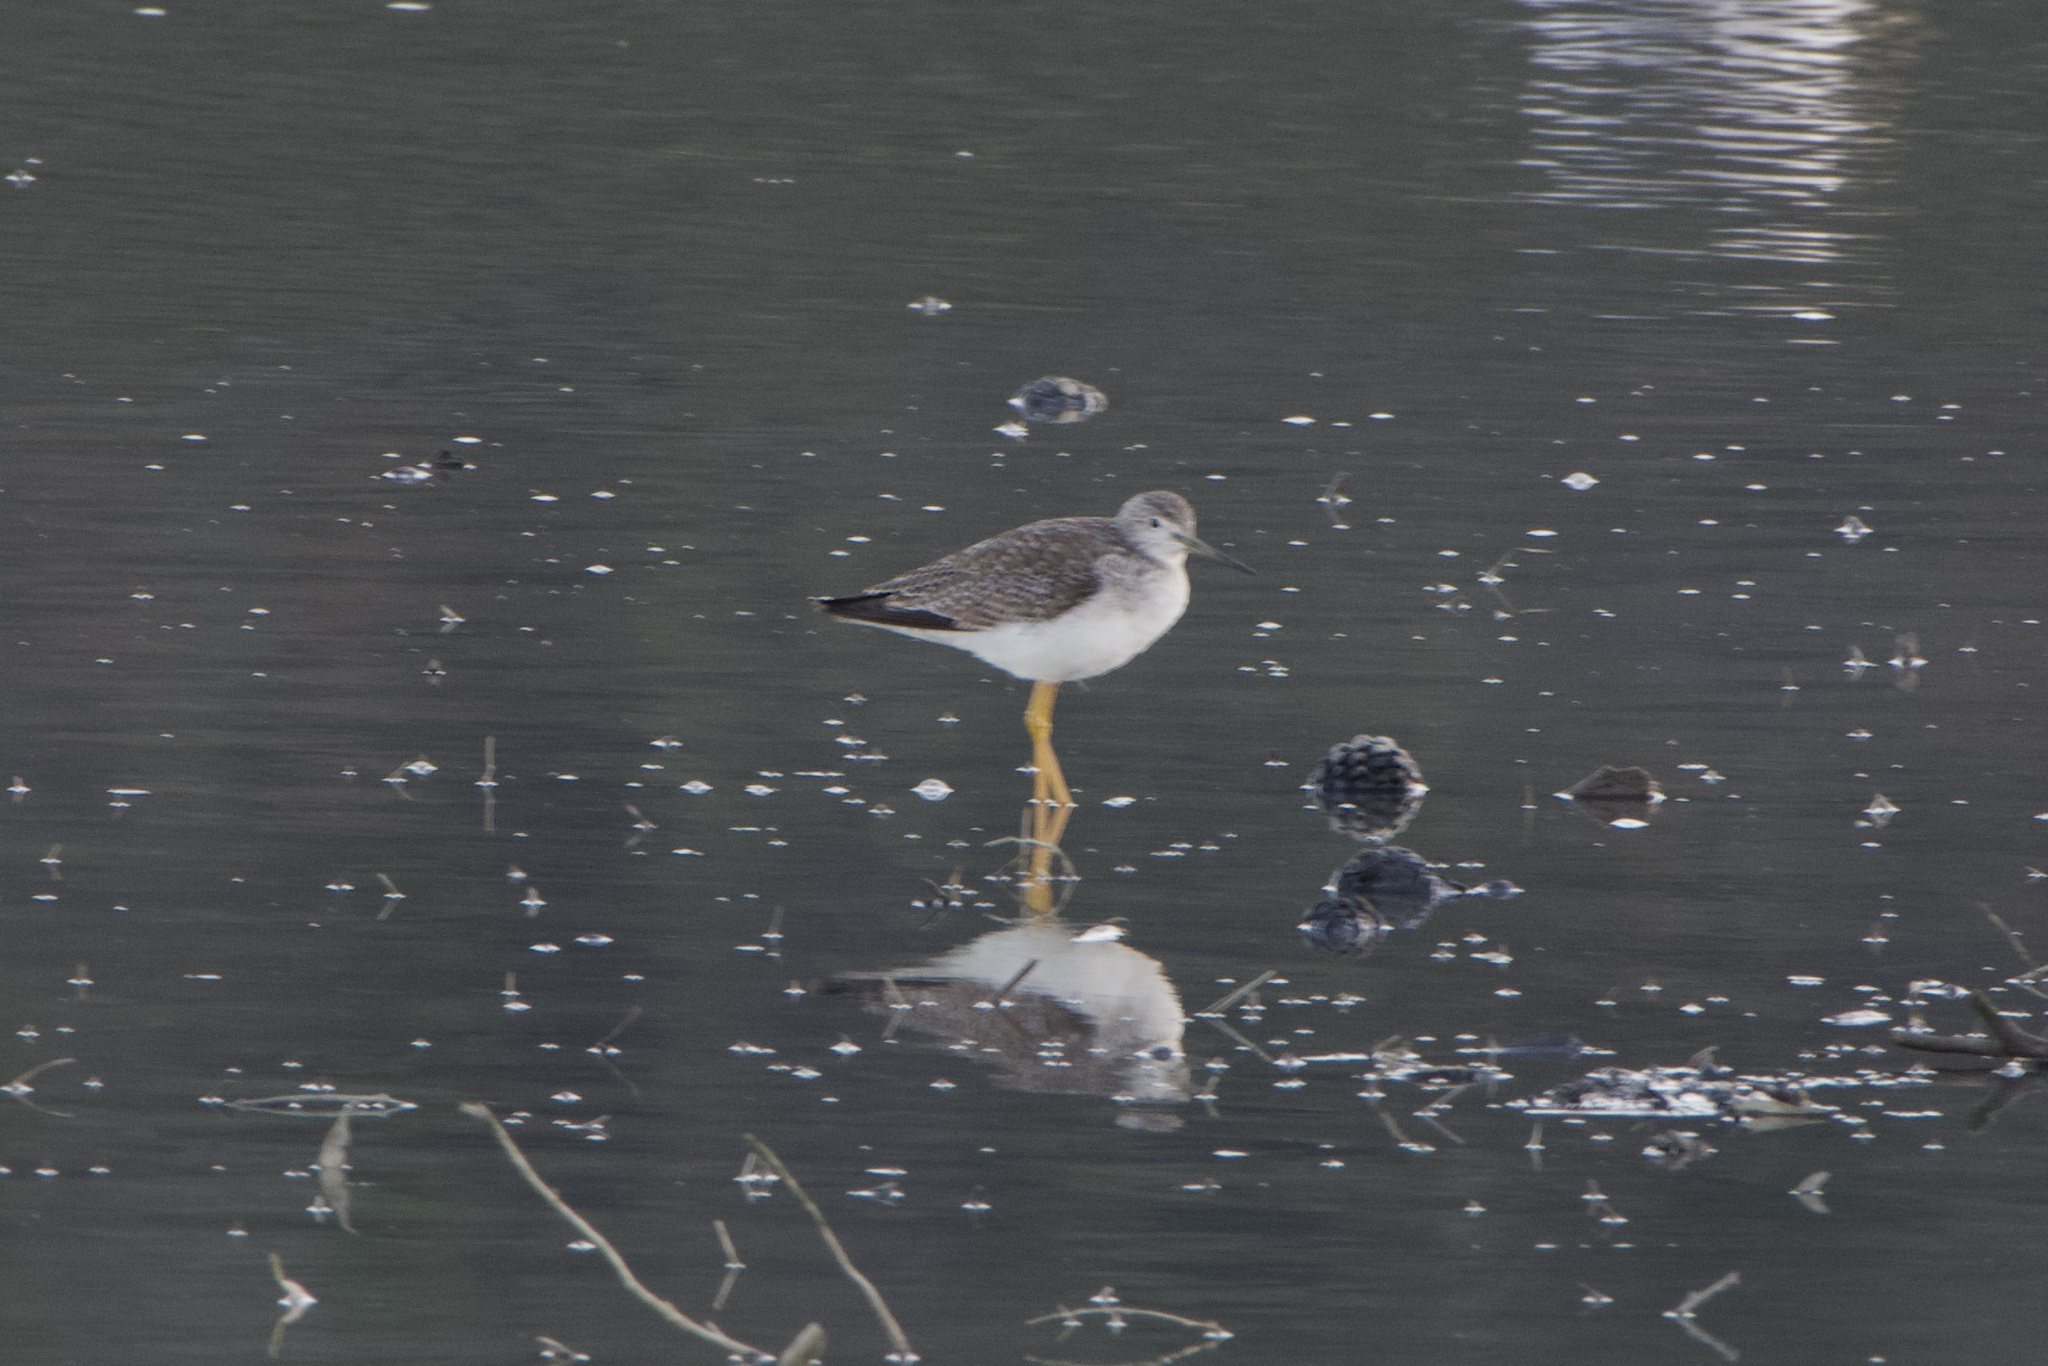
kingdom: Animalia
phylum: Chordata
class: Aves
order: Charadriiformes
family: Scolopacidae
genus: Tringa
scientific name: Tringa melanoleuca
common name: Greater yellowlegs
